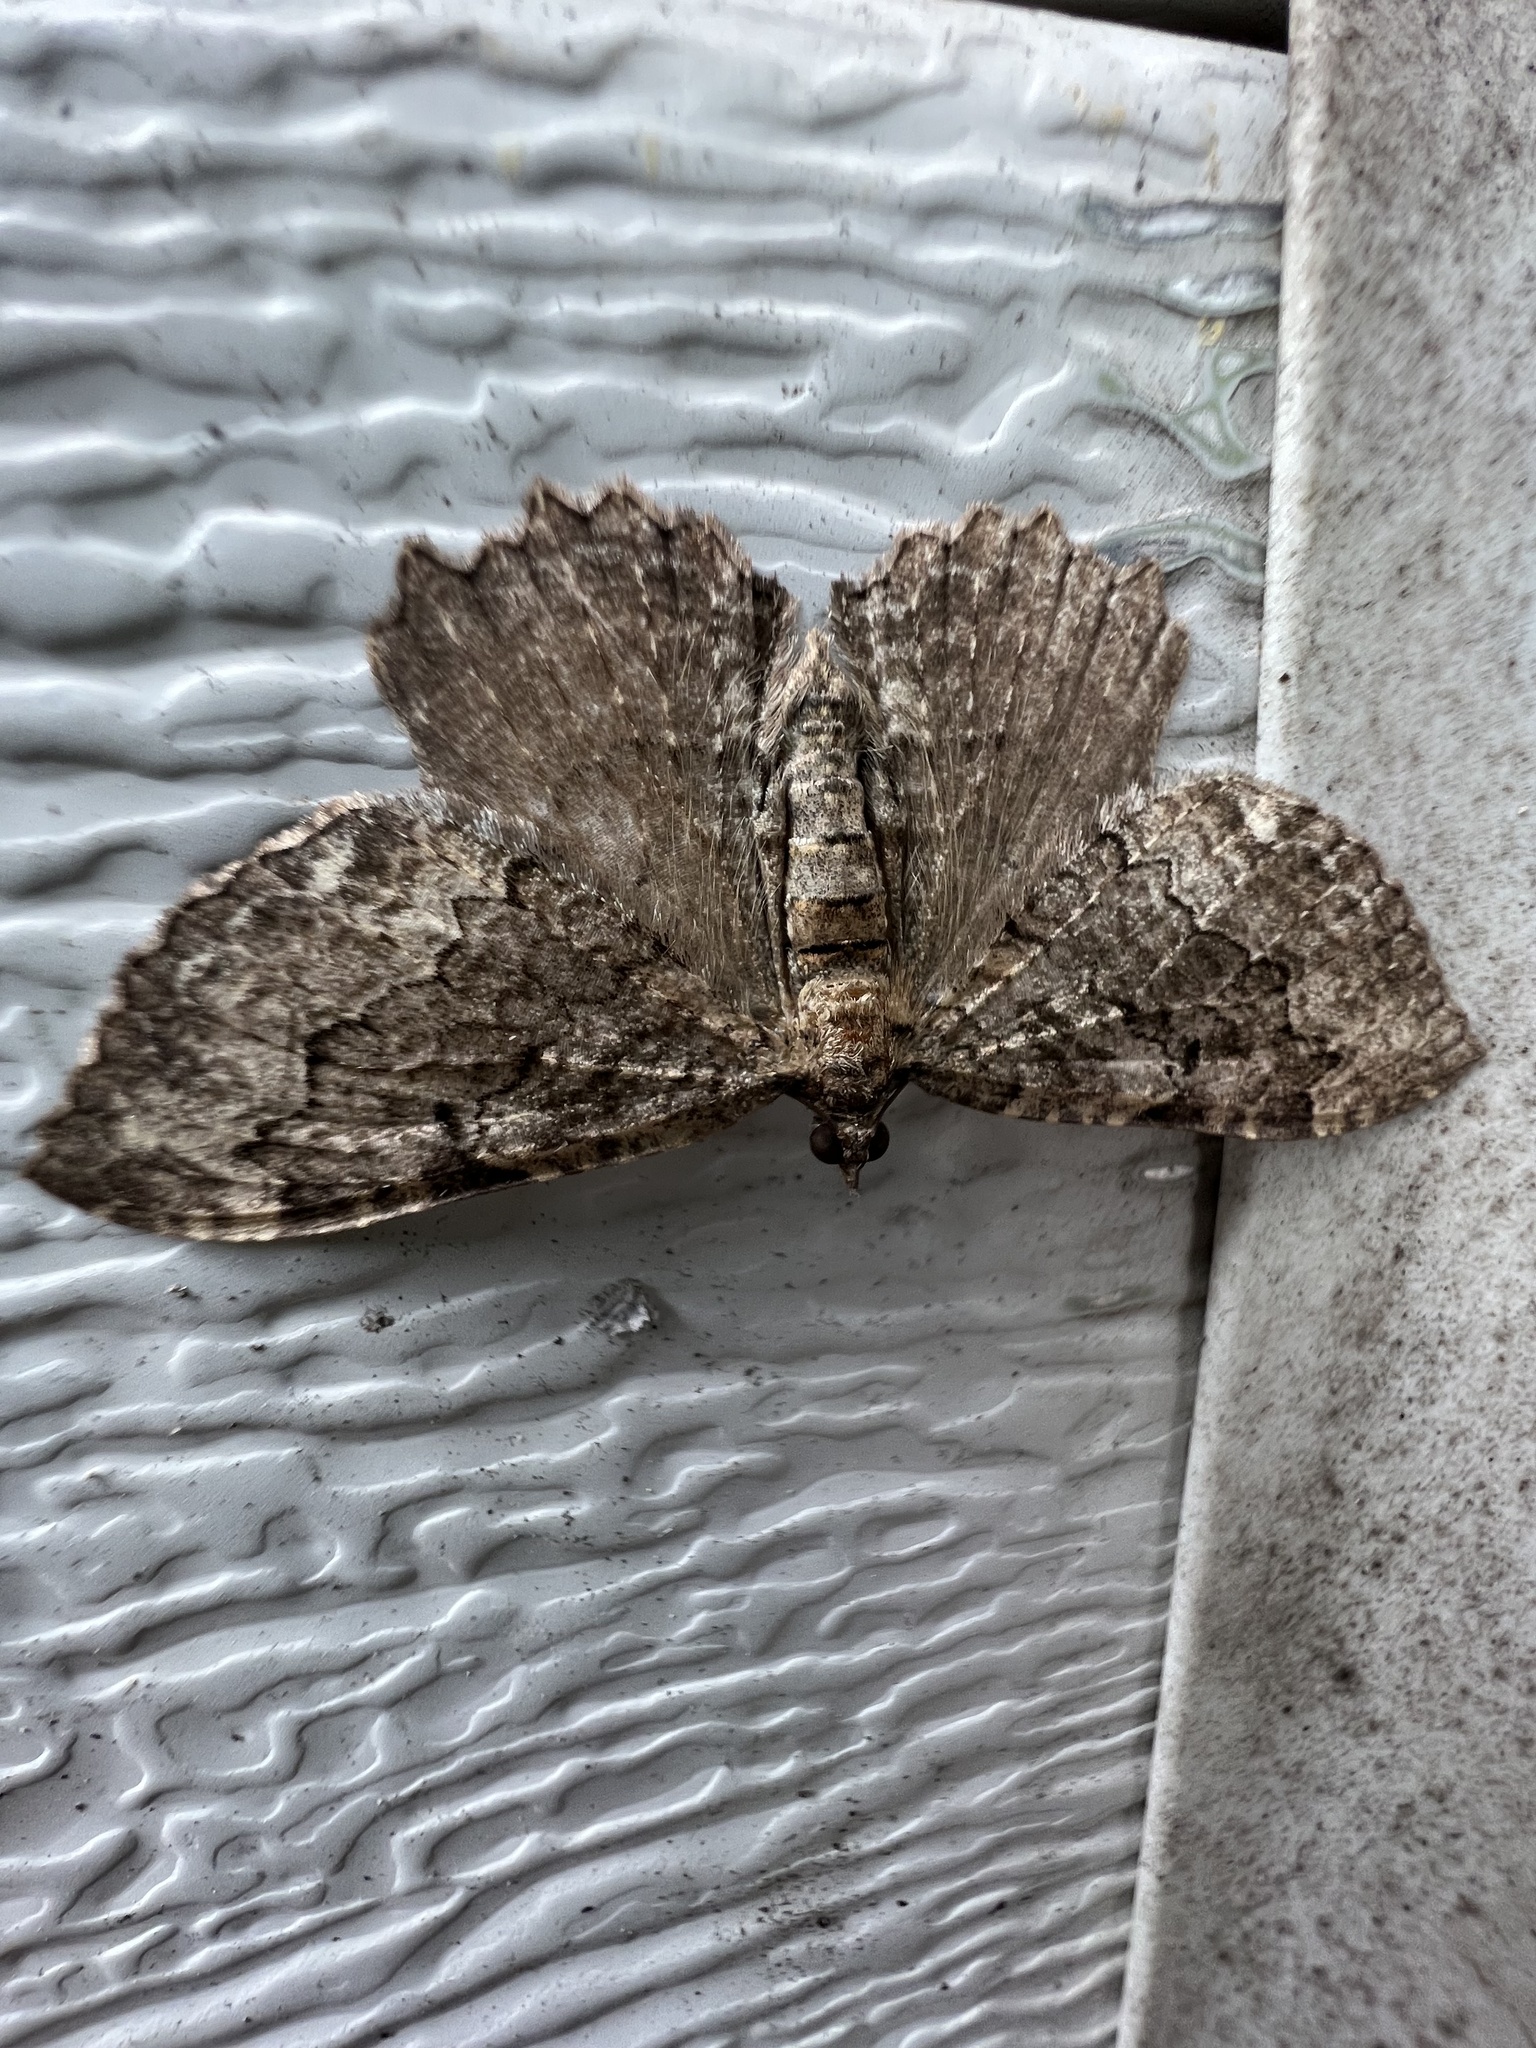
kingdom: Animalia
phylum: Arthropoda
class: Insecta
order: Lepidoptera
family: Geometridae
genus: Rheumaptera
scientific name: Rheumaptera
